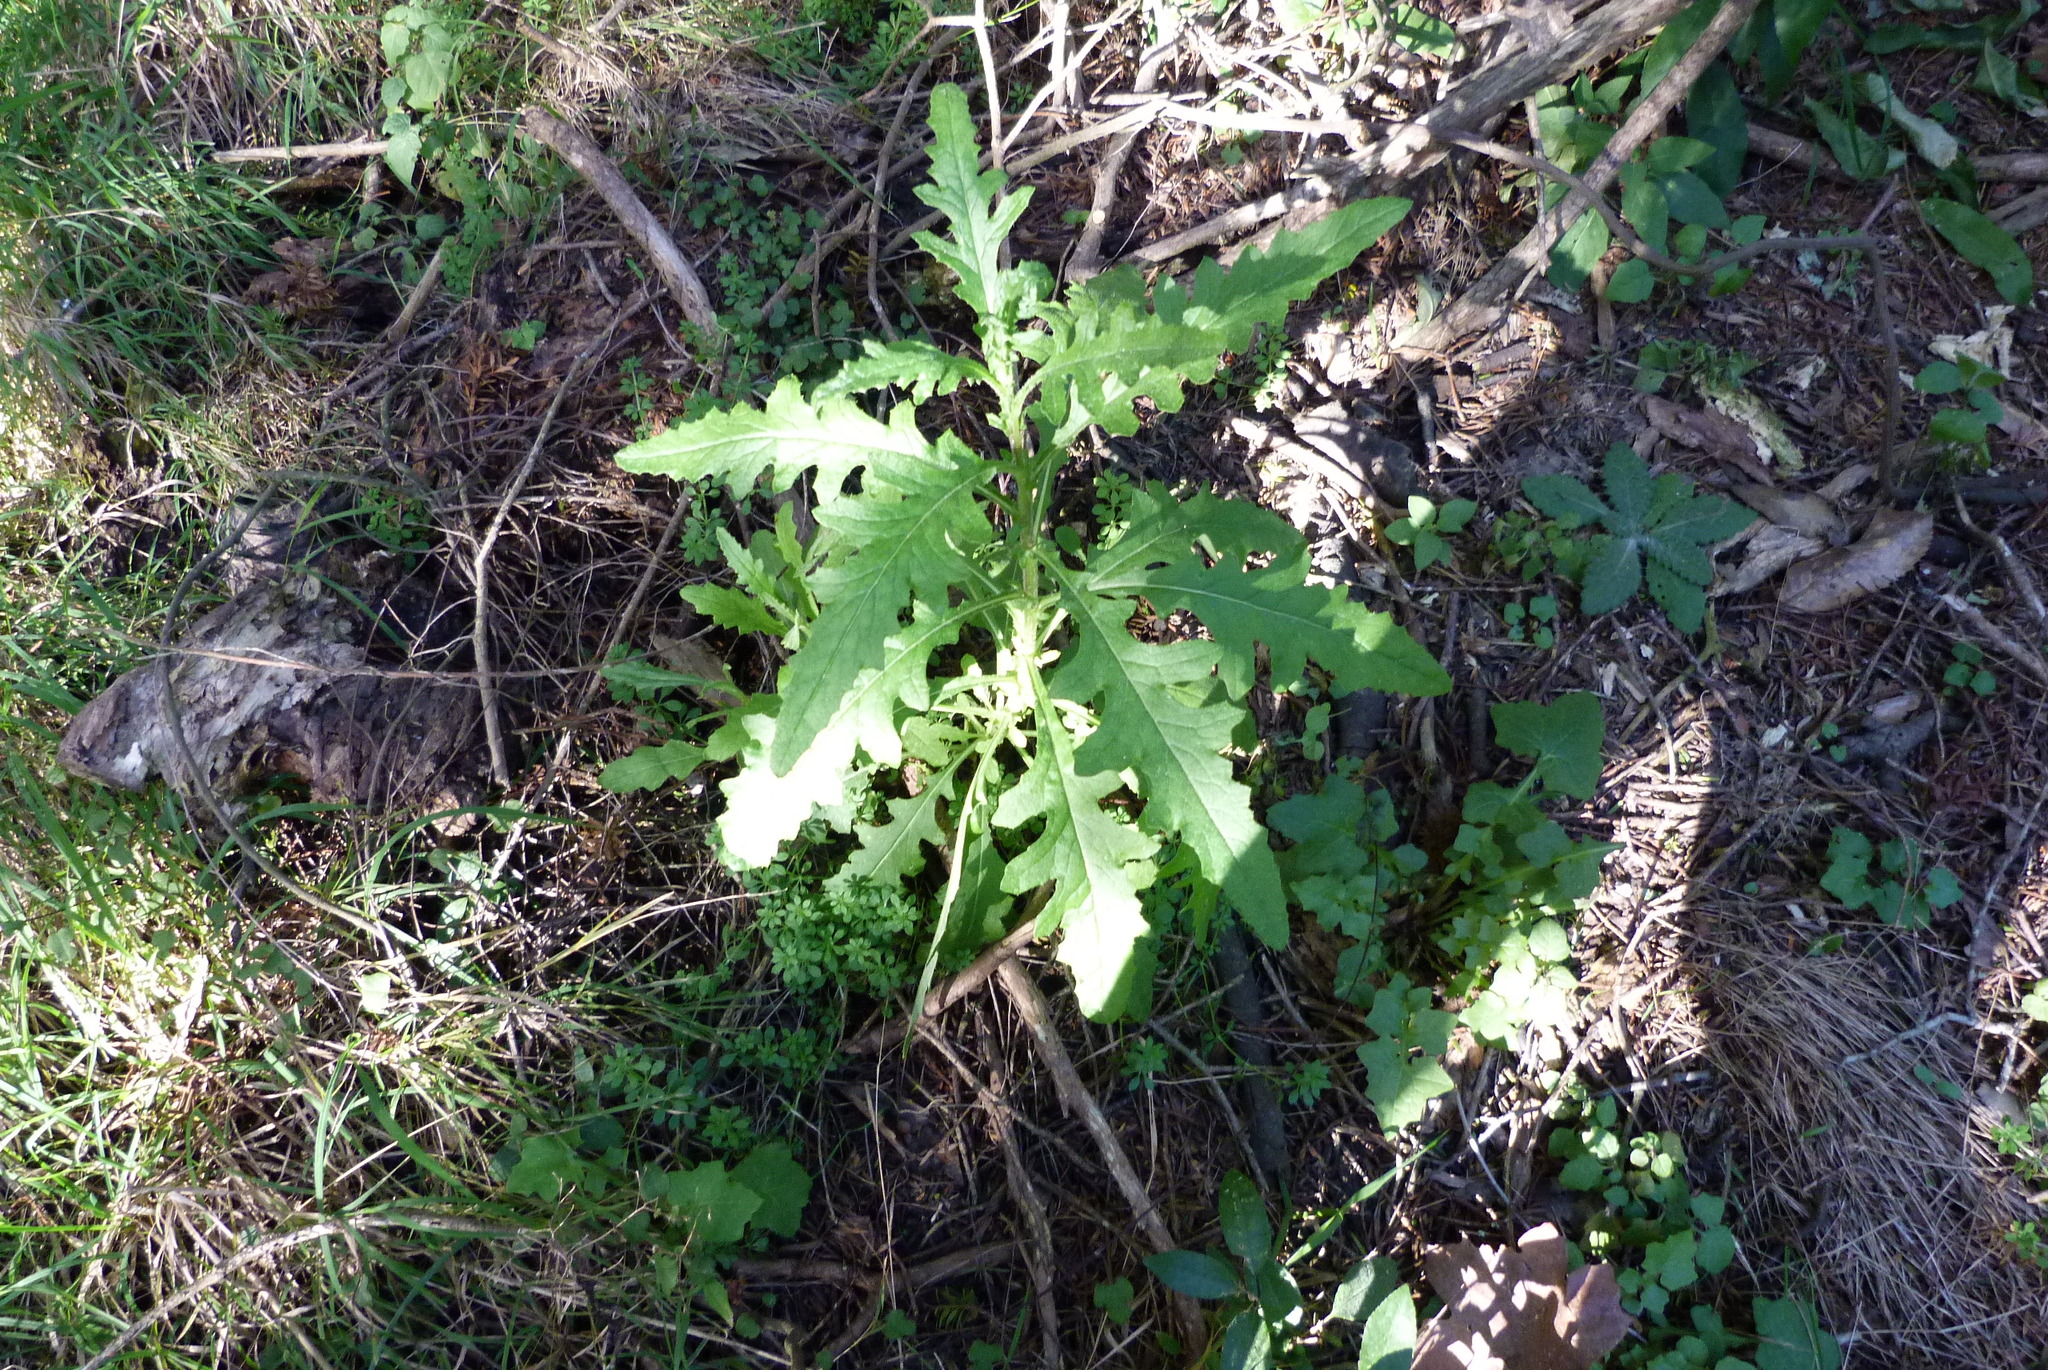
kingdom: Plantae
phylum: Tracheophyta
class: Magnoliopsida
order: Asterales
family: Asteraceae
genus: Senecio
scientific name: Senecio glomeratus
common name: Cutleaf burnweed
